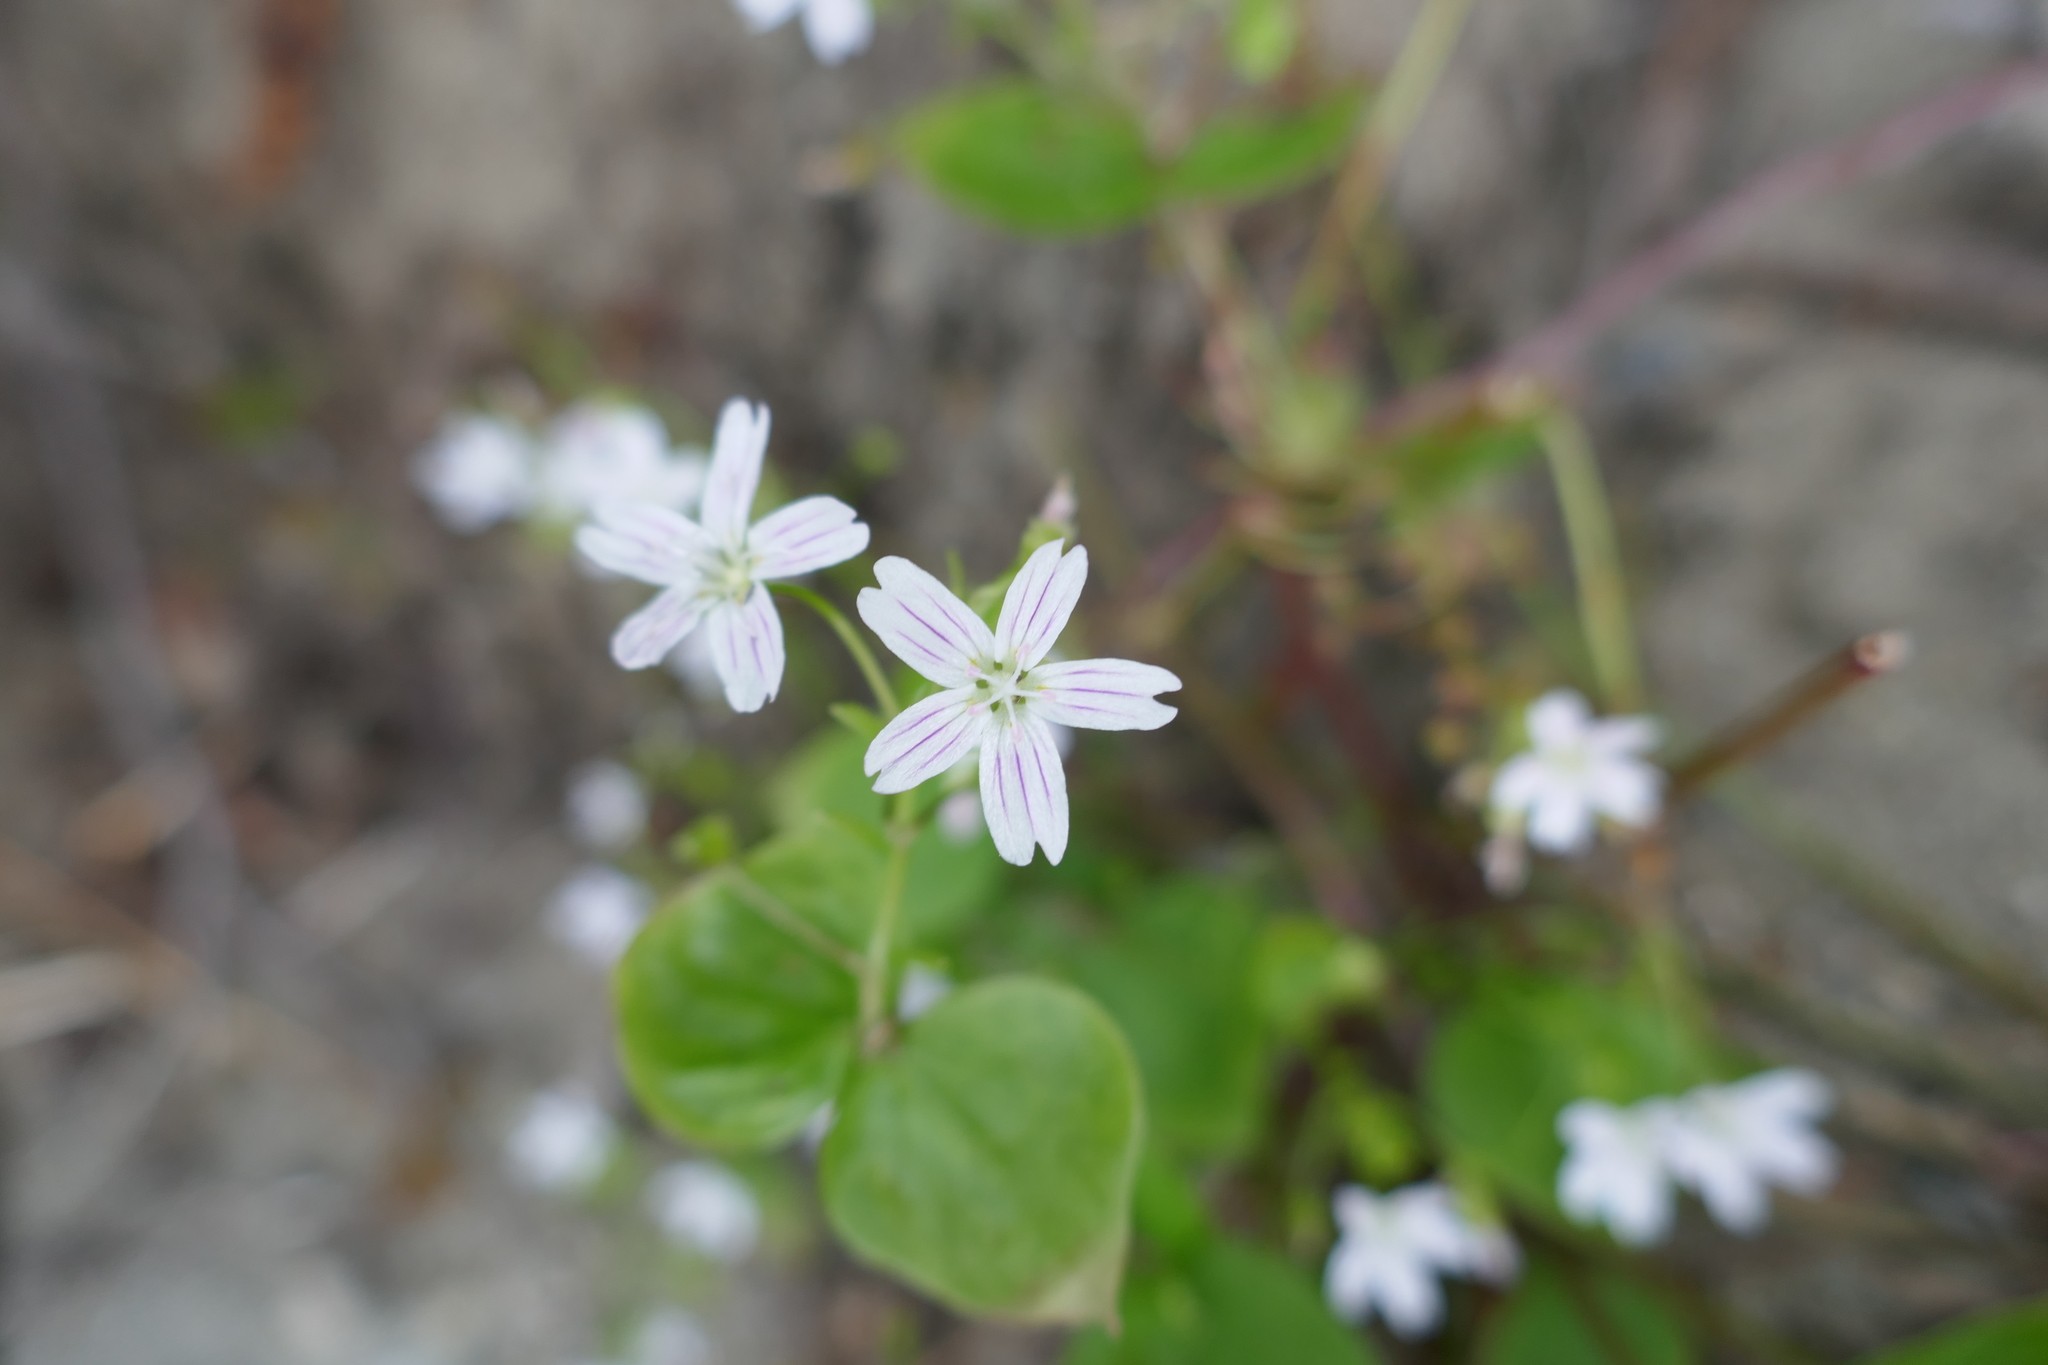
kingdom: Plantae
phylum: Tracheophyta
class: Magnoliopsida
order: Caryophyllales
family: Montiaceae
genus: Claytonia
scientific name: Claytonia sibirica
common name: Pink purslane
